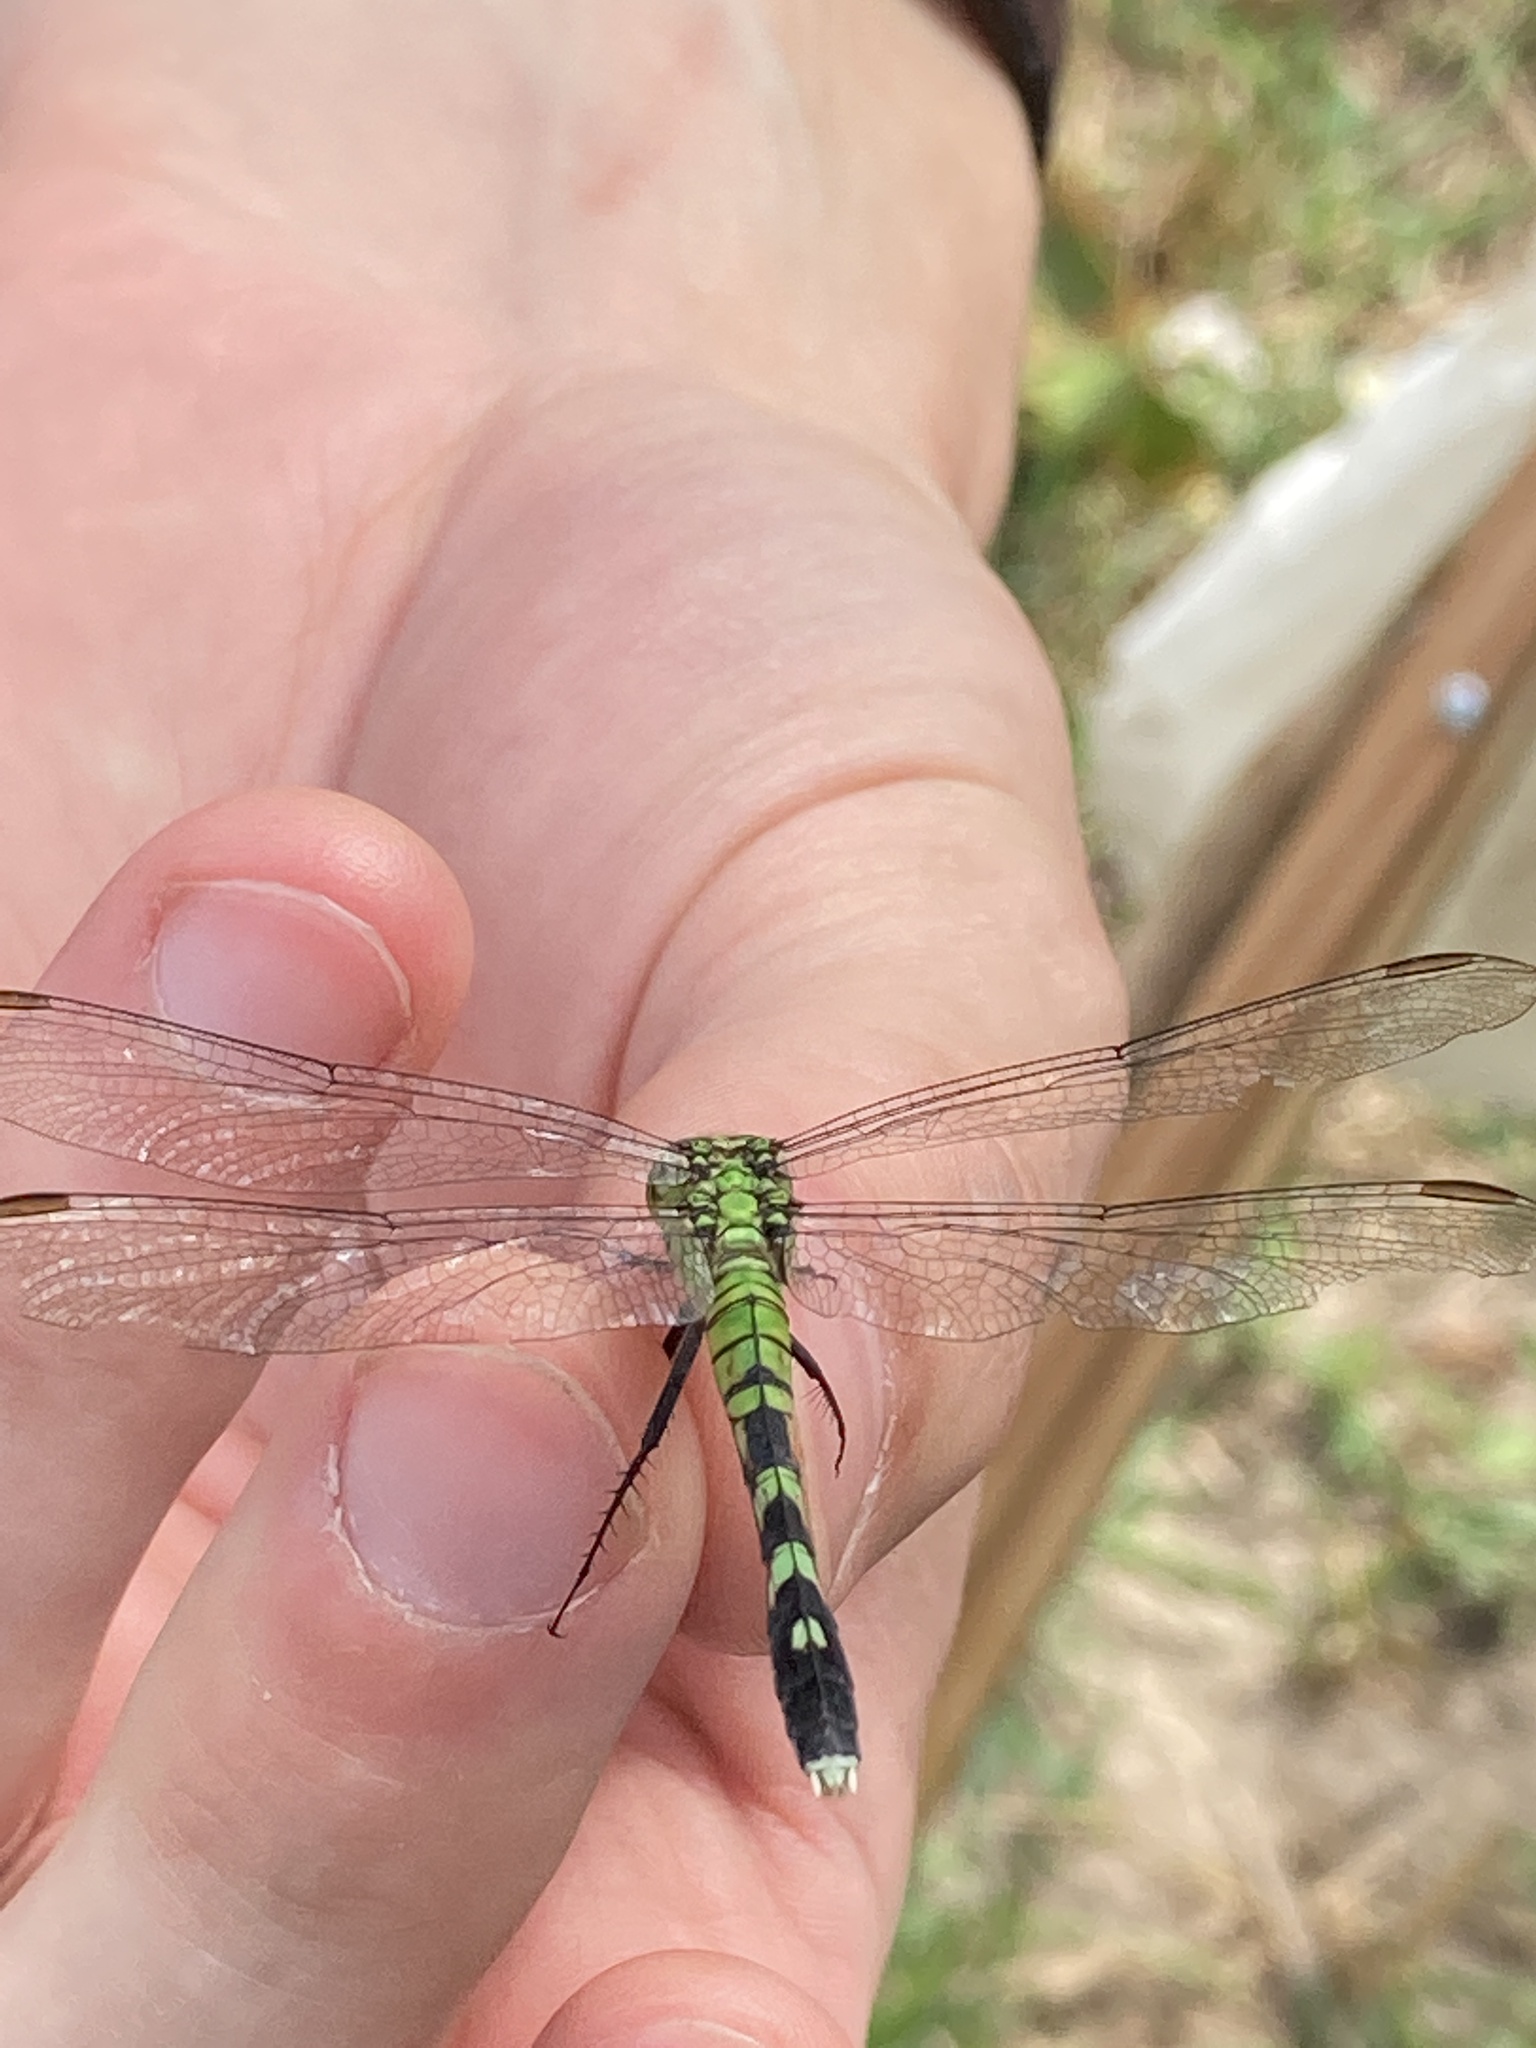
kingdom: Animalia
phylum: Arthropoda
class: Insecta
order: Odonata
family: Libellulidae
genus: Erythemis
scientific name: Erythemis simplicicollis
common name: Eastern pondhawk
